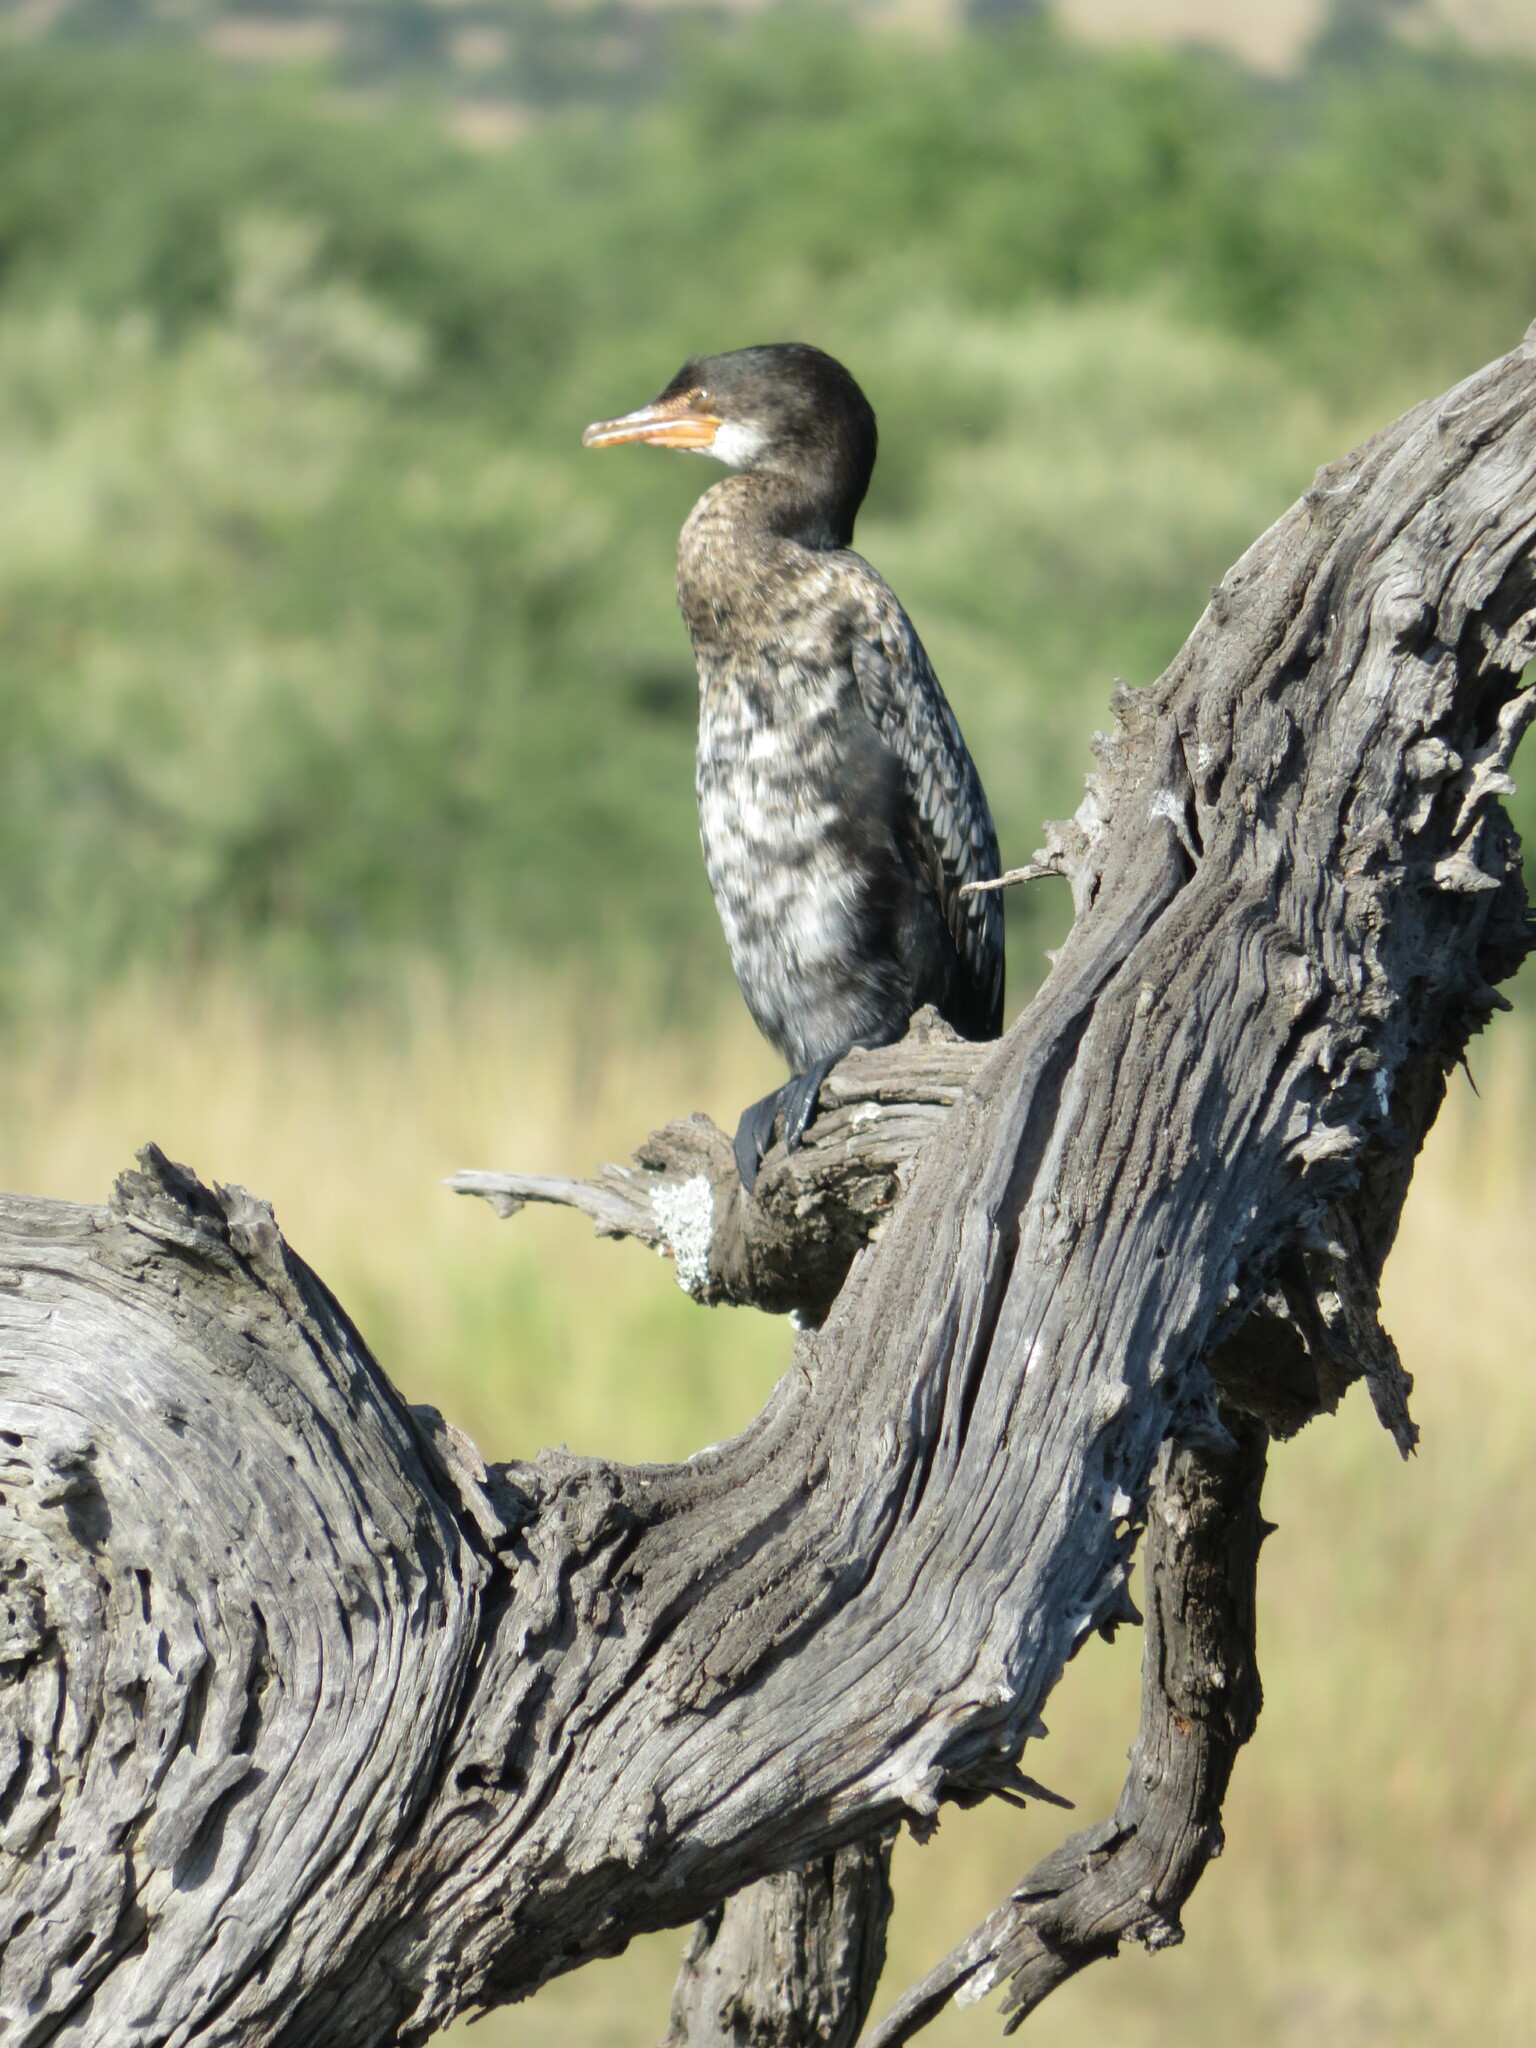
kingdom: Animalia
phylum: Chordata
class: Aves
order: Suliformes
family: Phalacrocoracidae
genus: Microcarbo
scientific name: Microcarbo africanus
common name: Long-tailed cormorant
